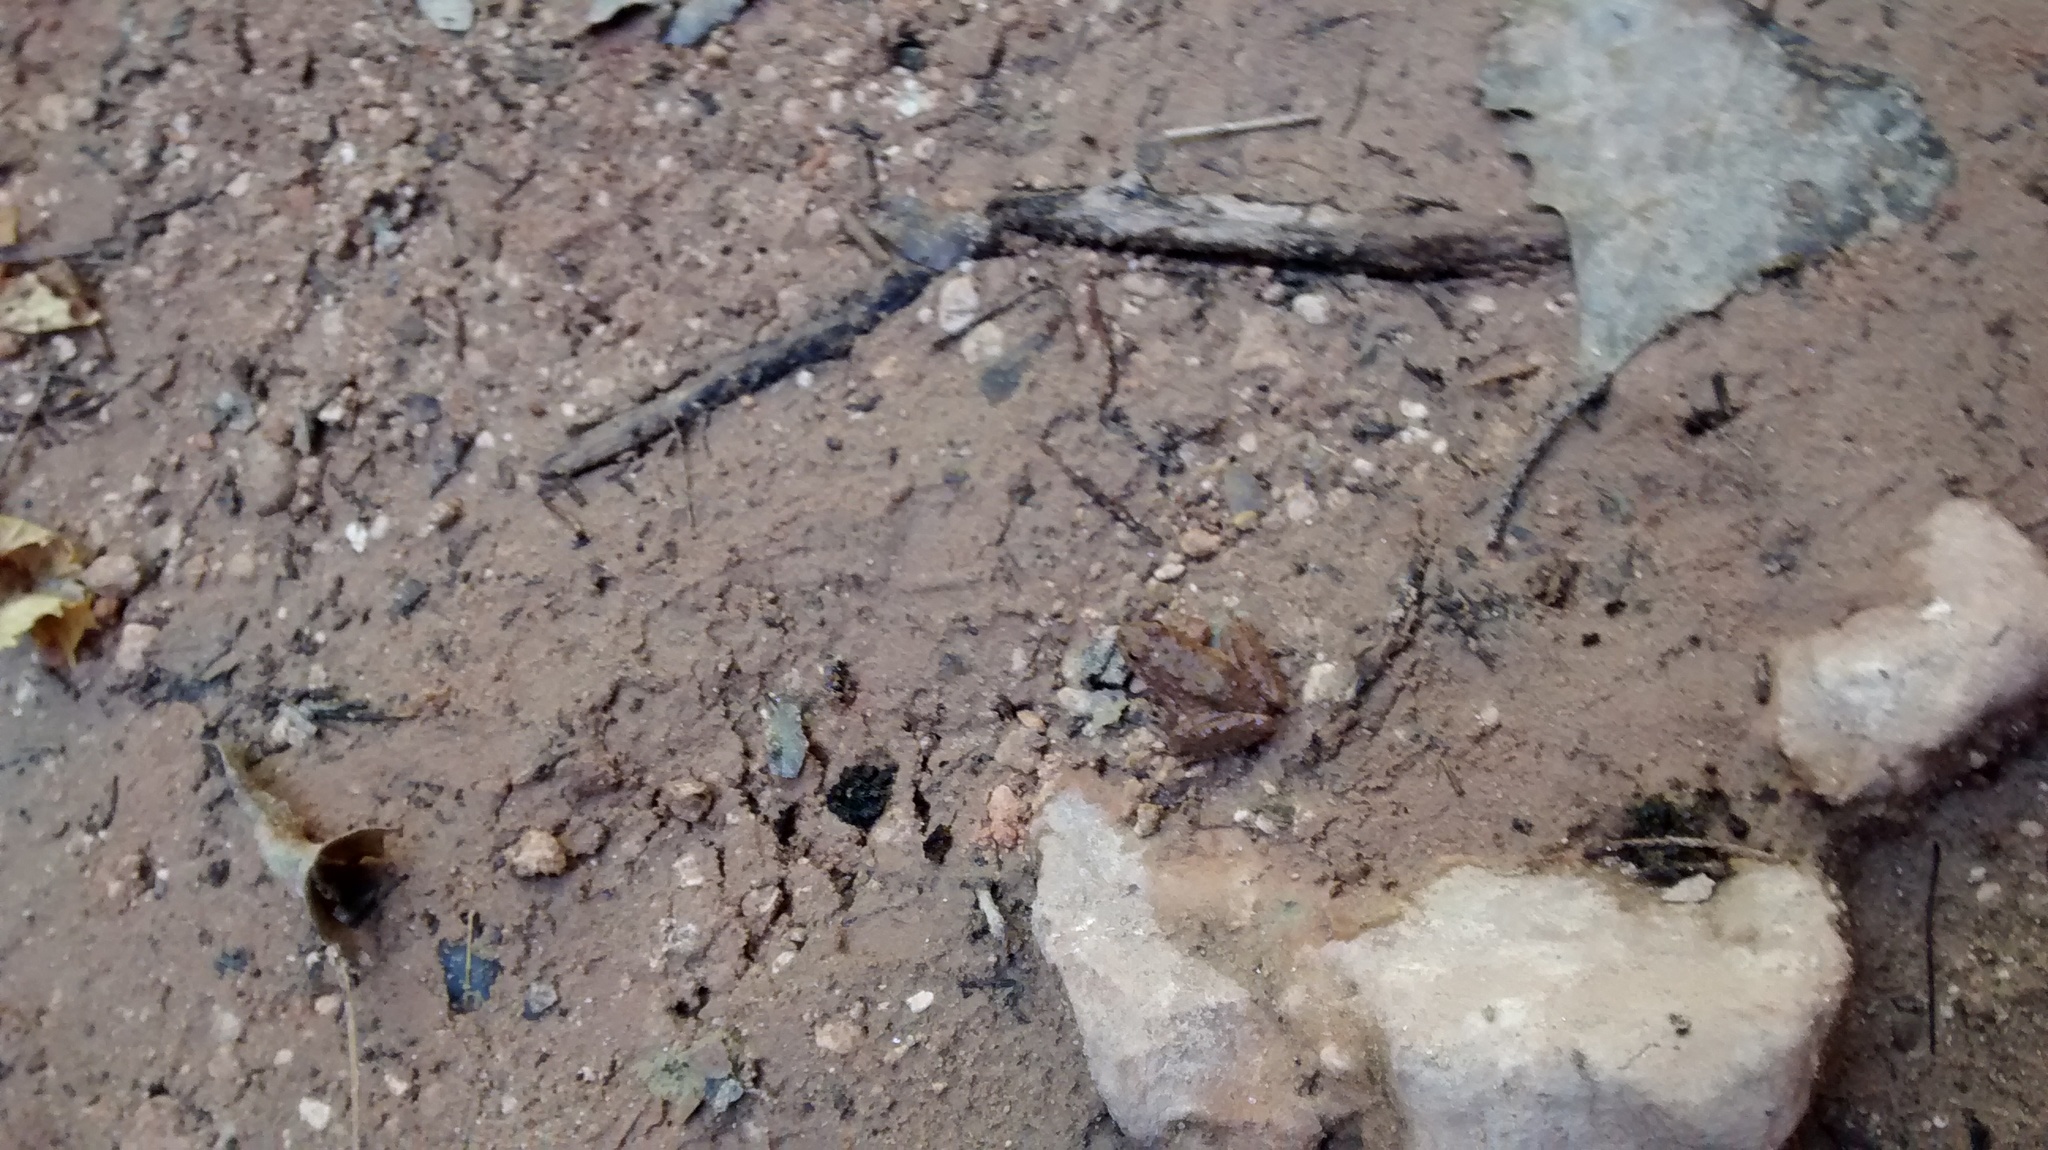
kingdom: Animalia
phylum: Chordata
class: Amphibia
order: Anura
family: Hylidae
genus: Acris
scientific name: Acris blanchardi
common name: Blanchard's cricket frog
